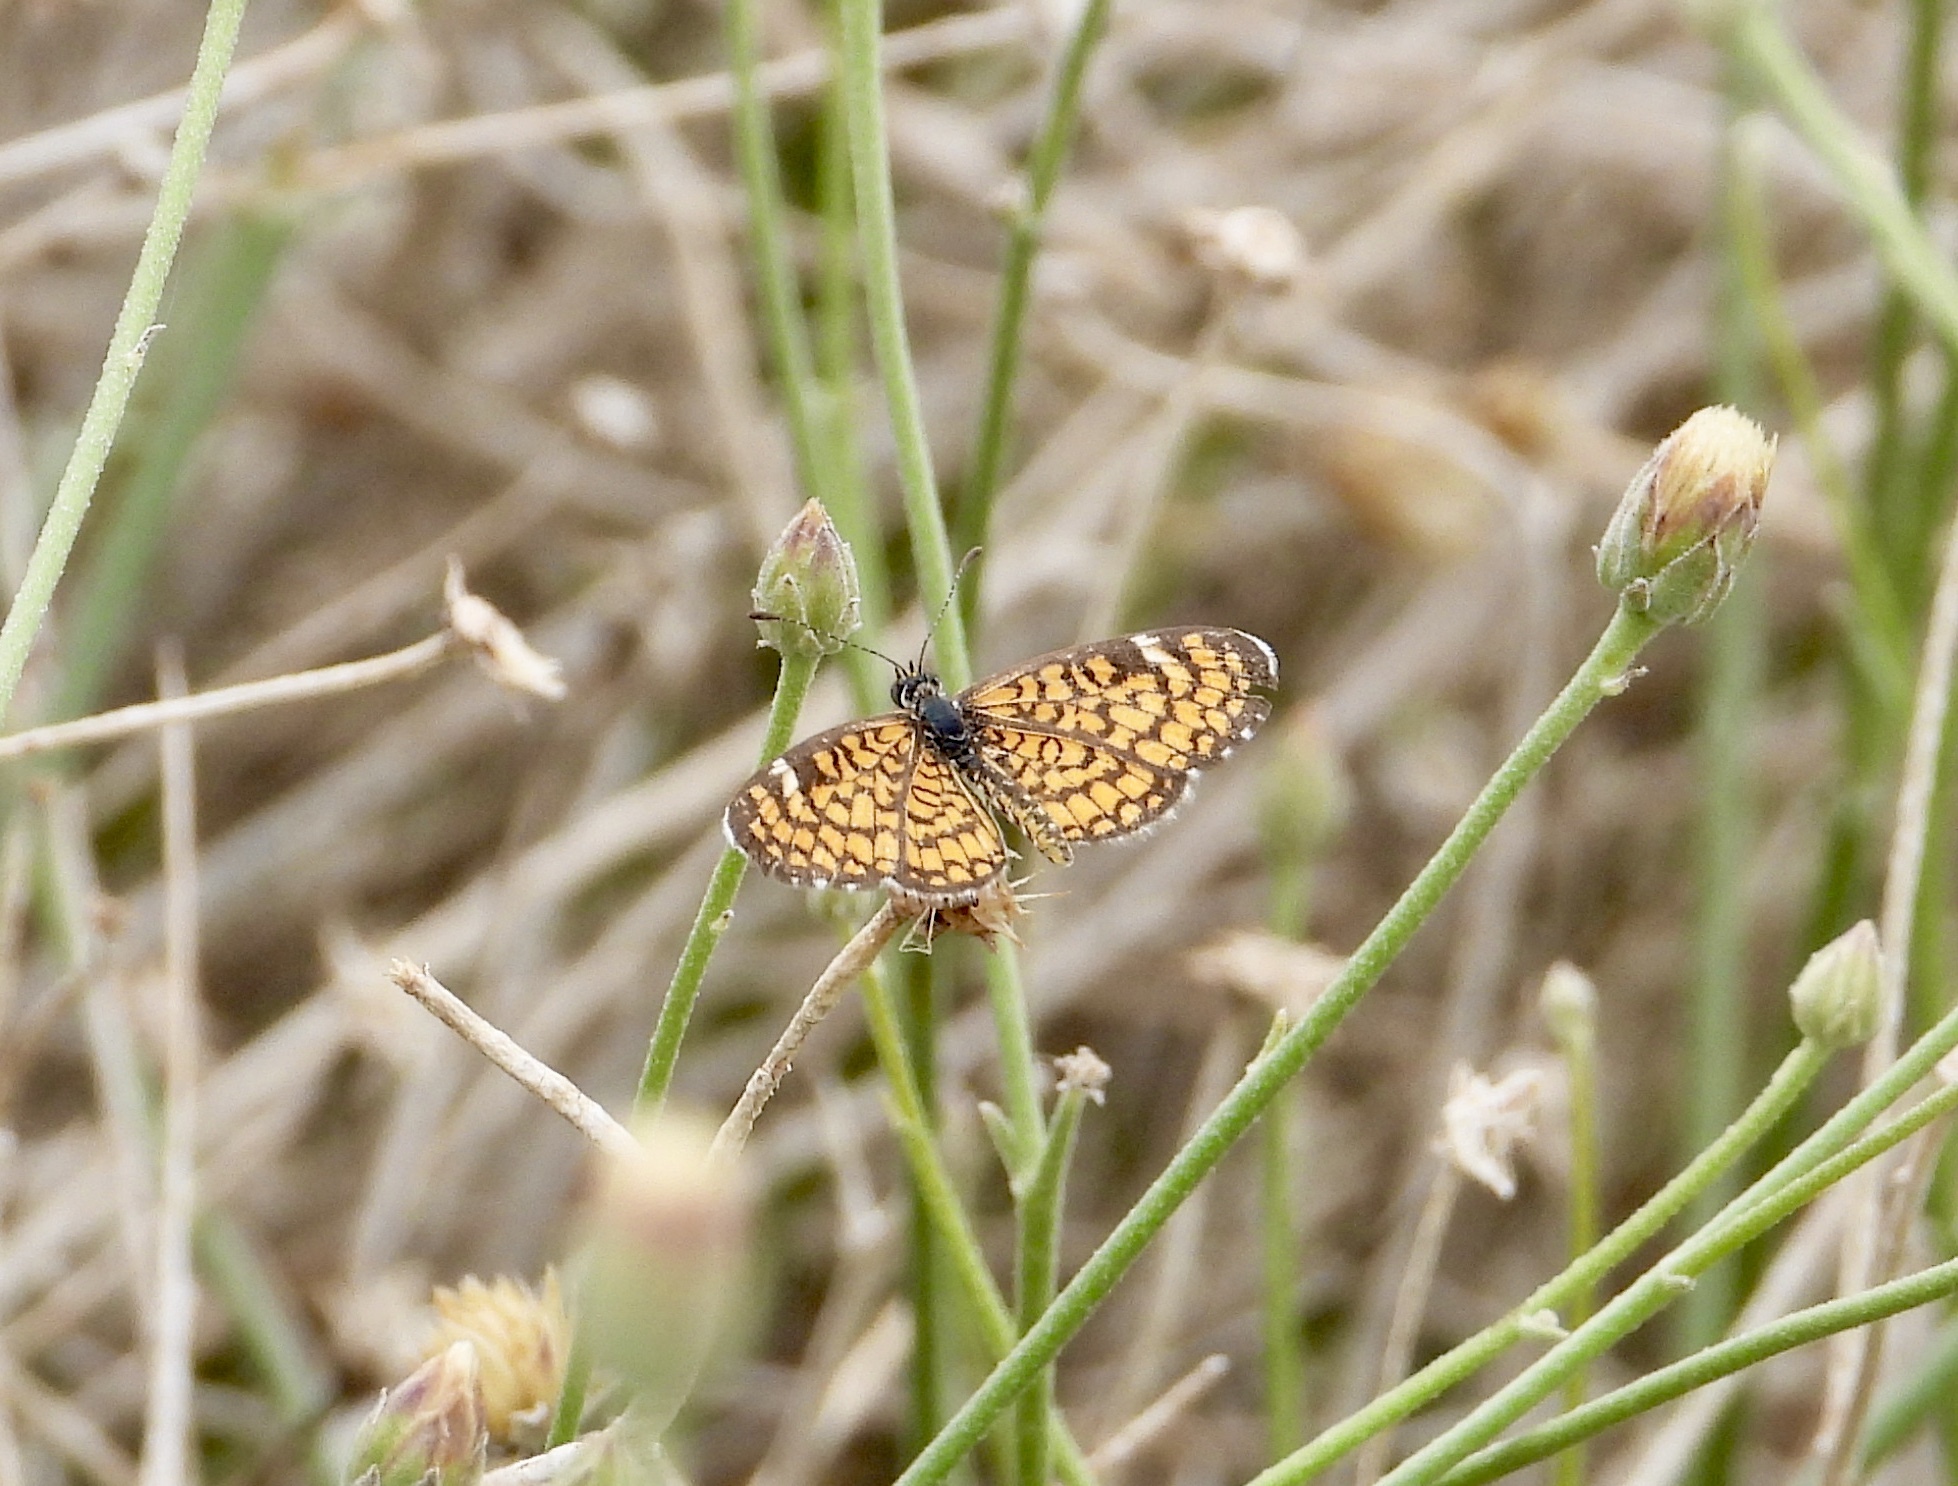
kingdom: Animalia
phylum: Arthropoda
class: Insecta
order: Lepidoptera
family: Nymphalidae
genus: Dymasia
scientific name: Dymasia dymas
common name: Tiny checkerspot
